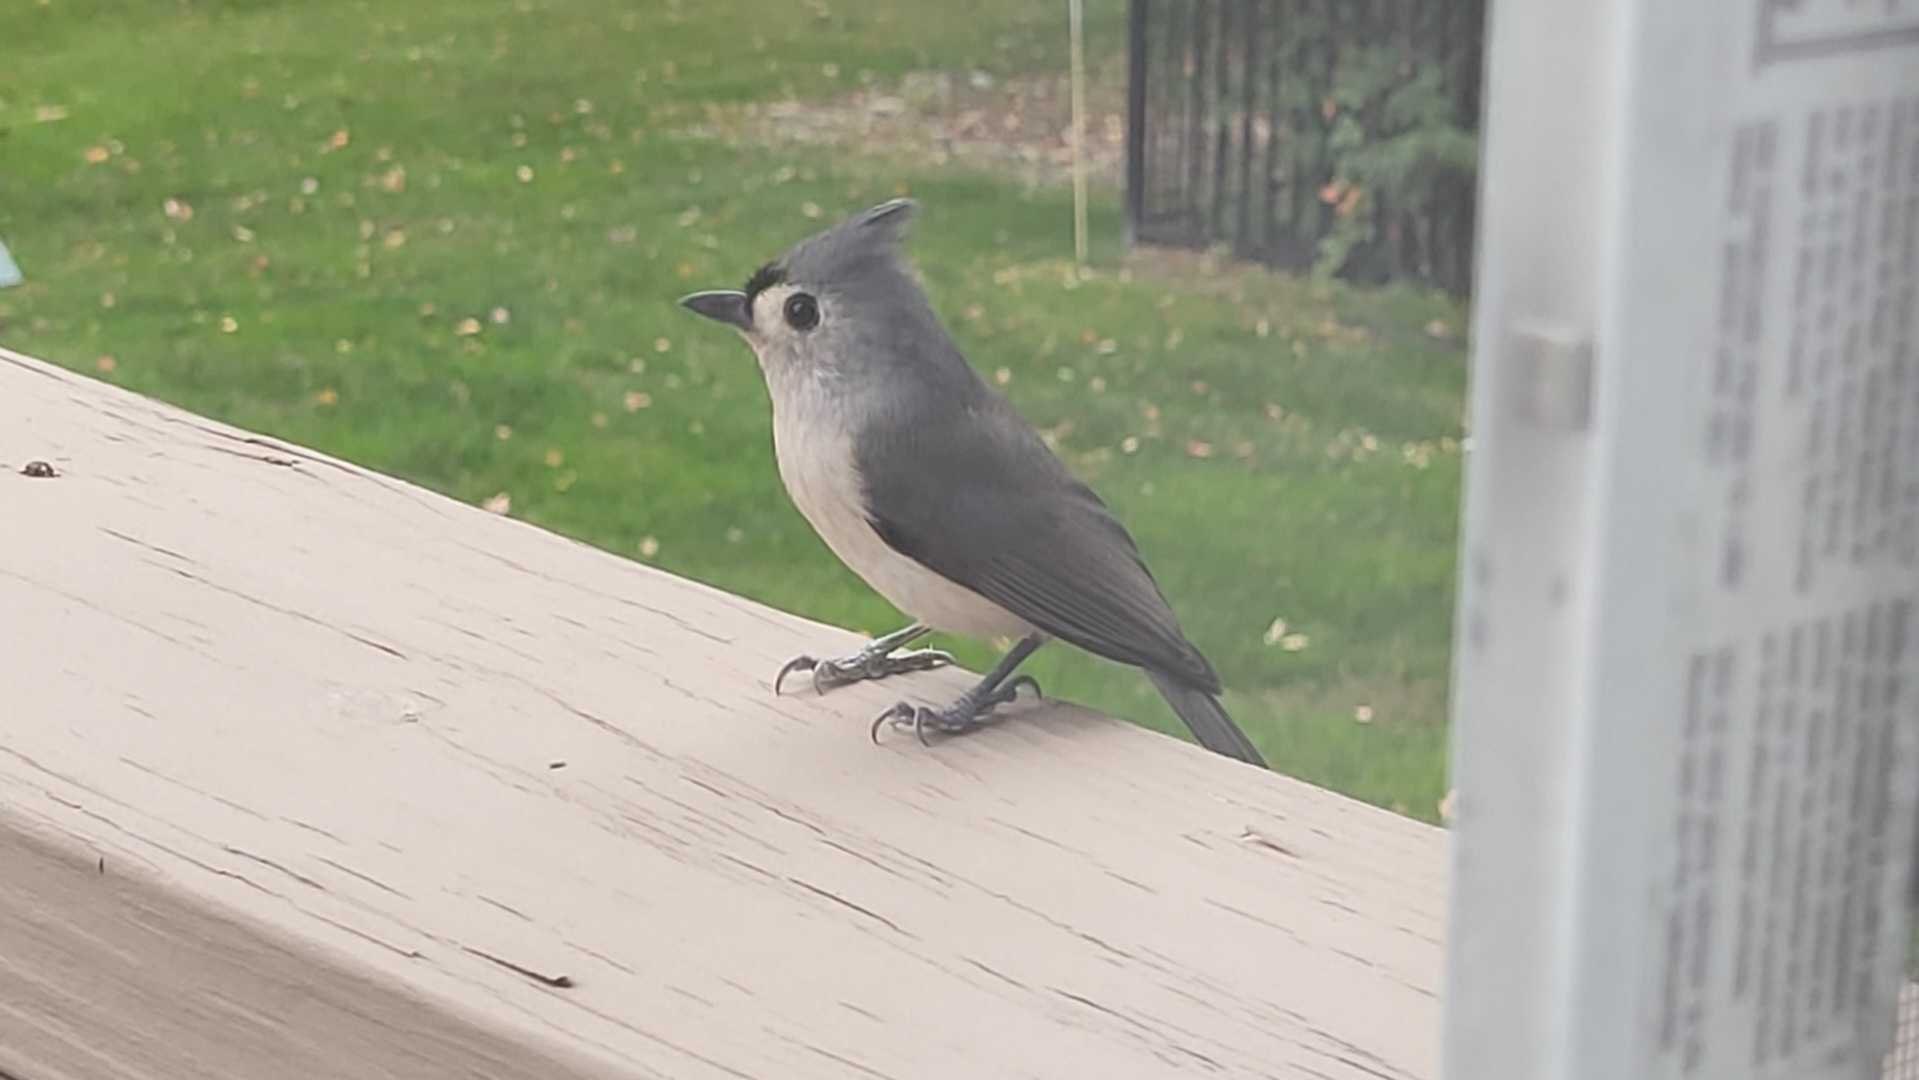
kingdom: Animalia
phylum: Chordata
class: Aves
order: Passeriformes
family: Paridae
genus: Baeolophus
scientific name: Baeolophus bicolor
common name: Tufted titmouse
